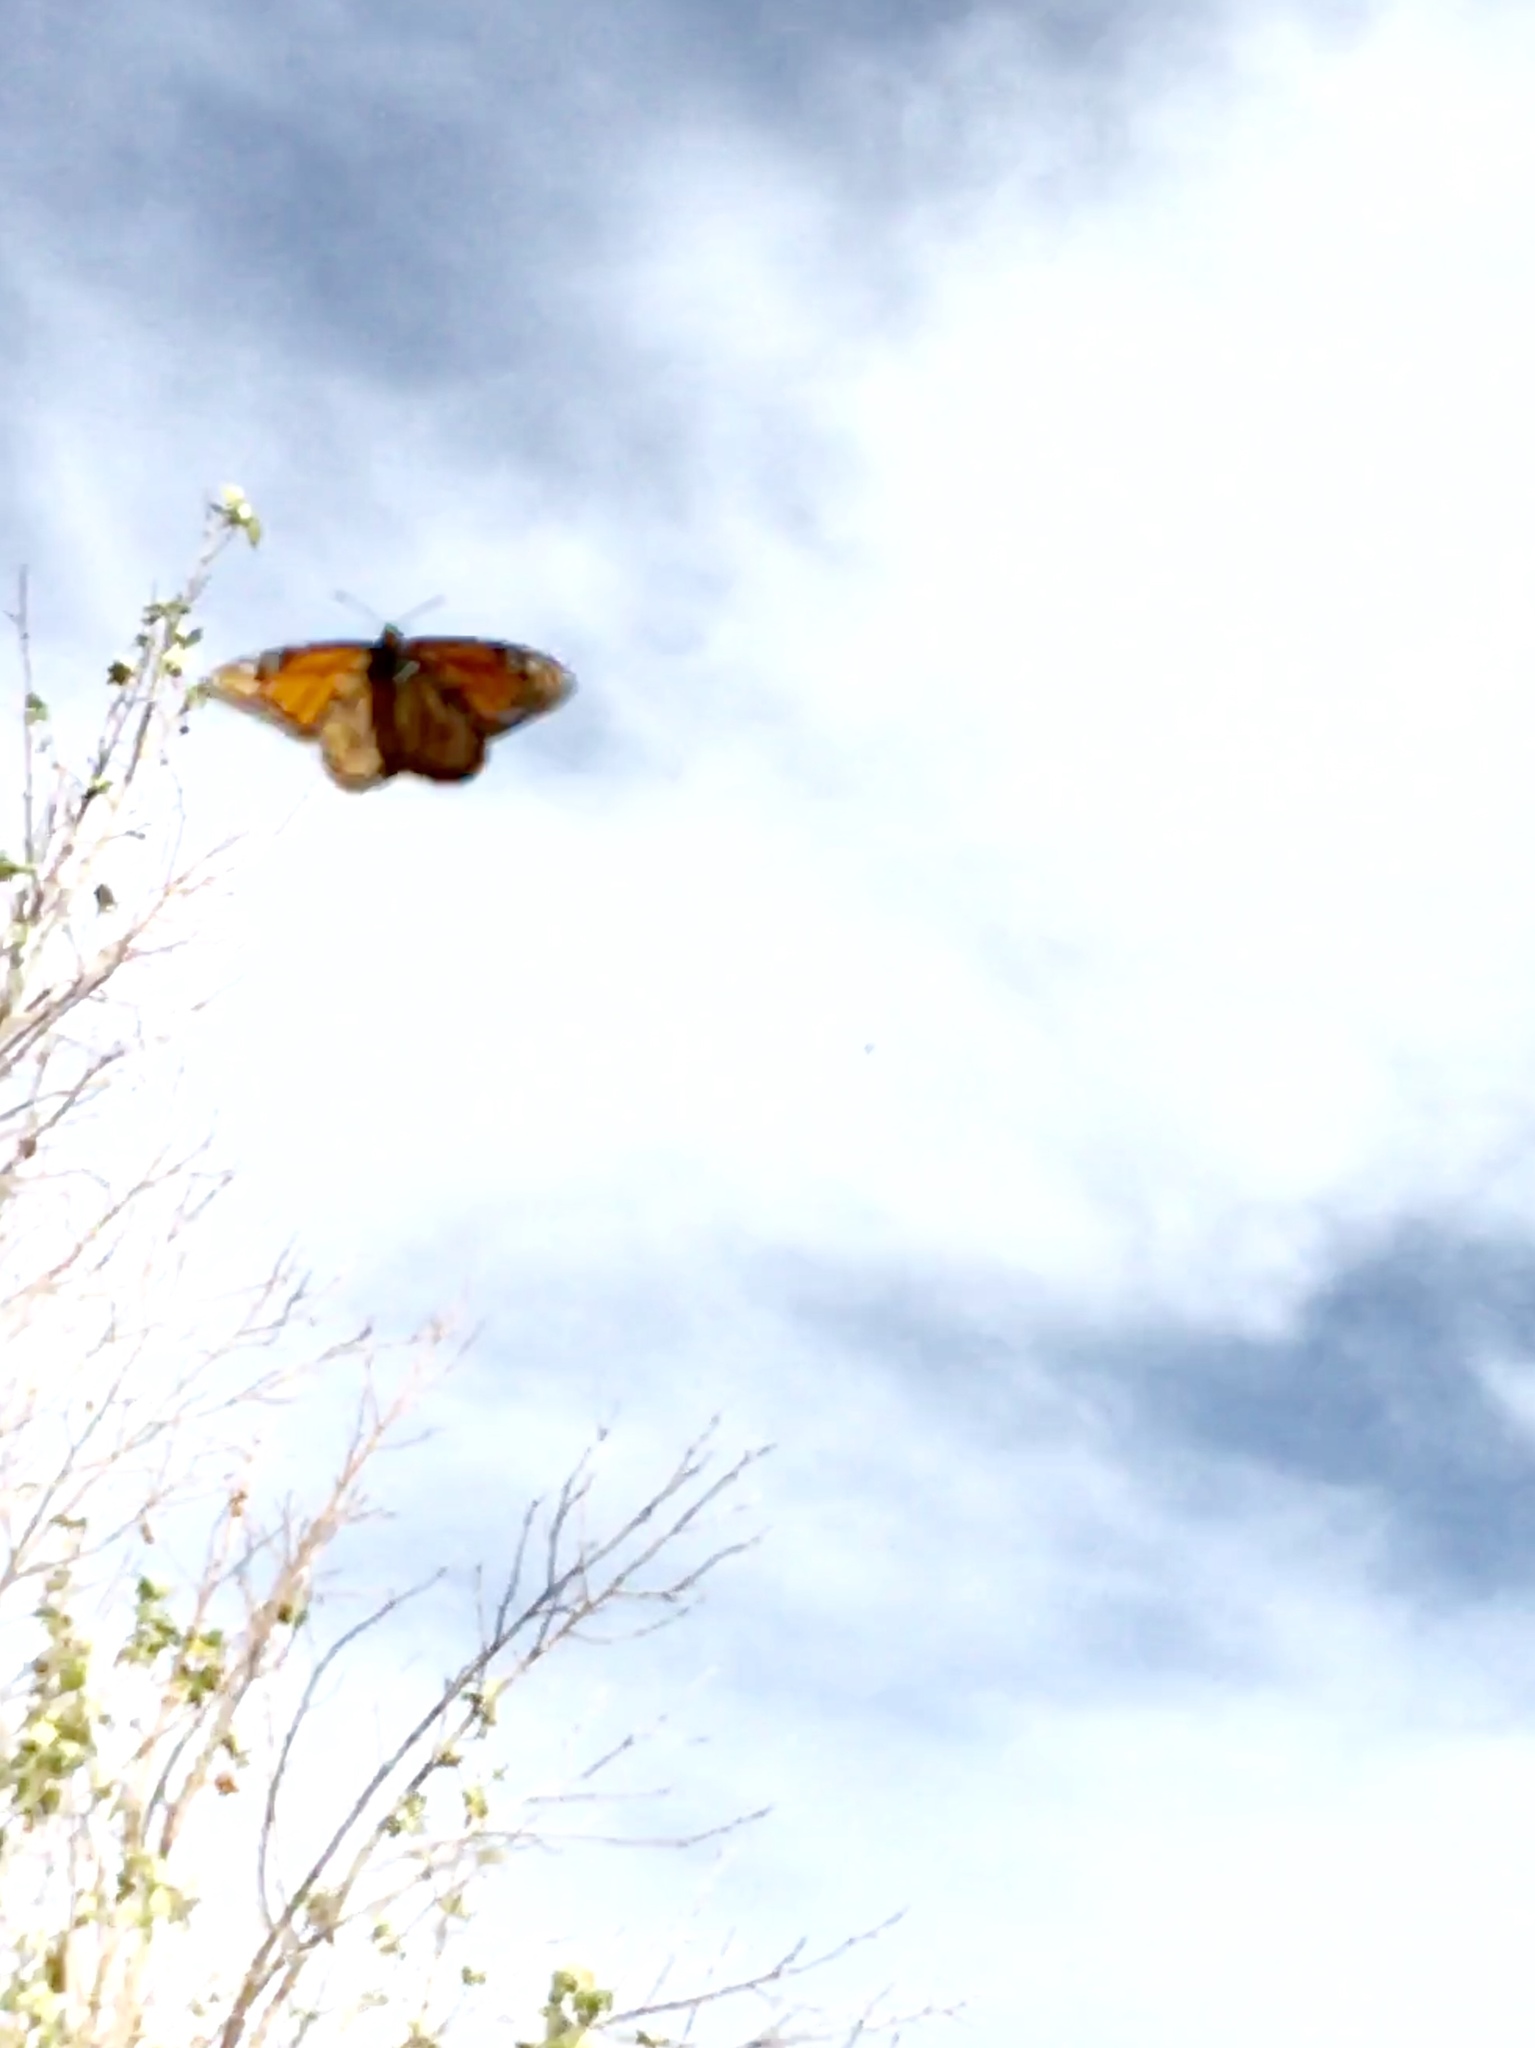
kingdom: Animalia
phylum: Arthropoda
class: Insecta
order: Lepidoptera
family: Nymphalidae
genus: Danaus
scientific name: Danaus plexippus
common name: Monarch
